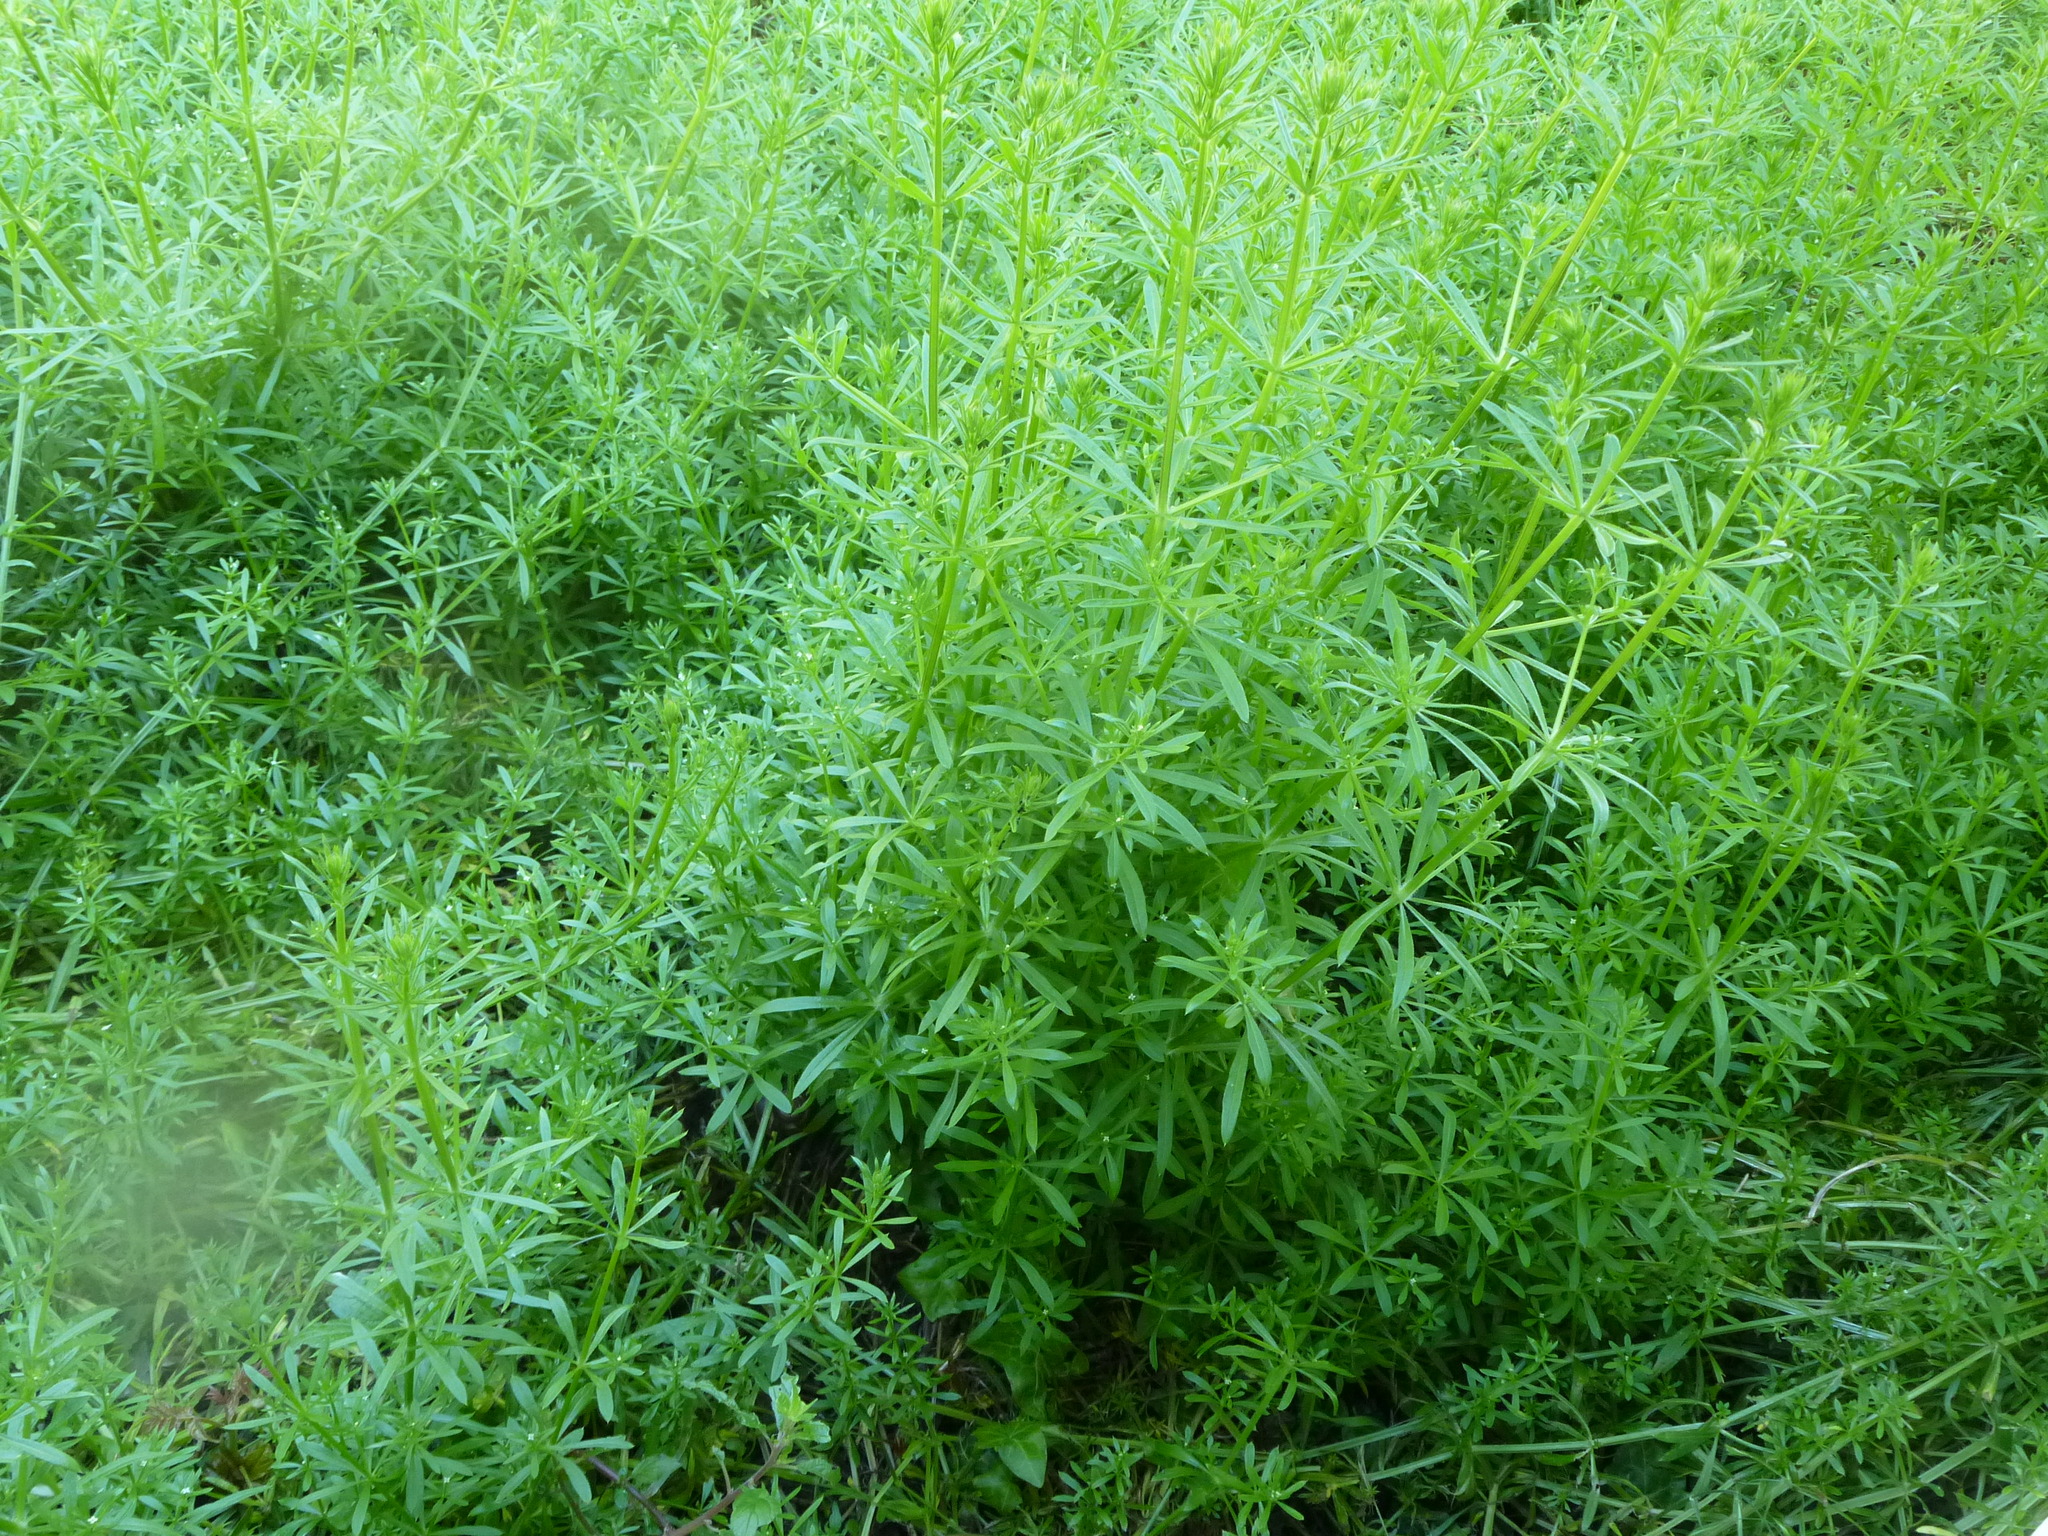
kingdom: Plantae
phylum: Tracheophyta
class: Magnoliopsida
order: Gentianales
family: Rubiaceae
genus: Galium
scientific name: Galium aparine
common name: Cleavers
